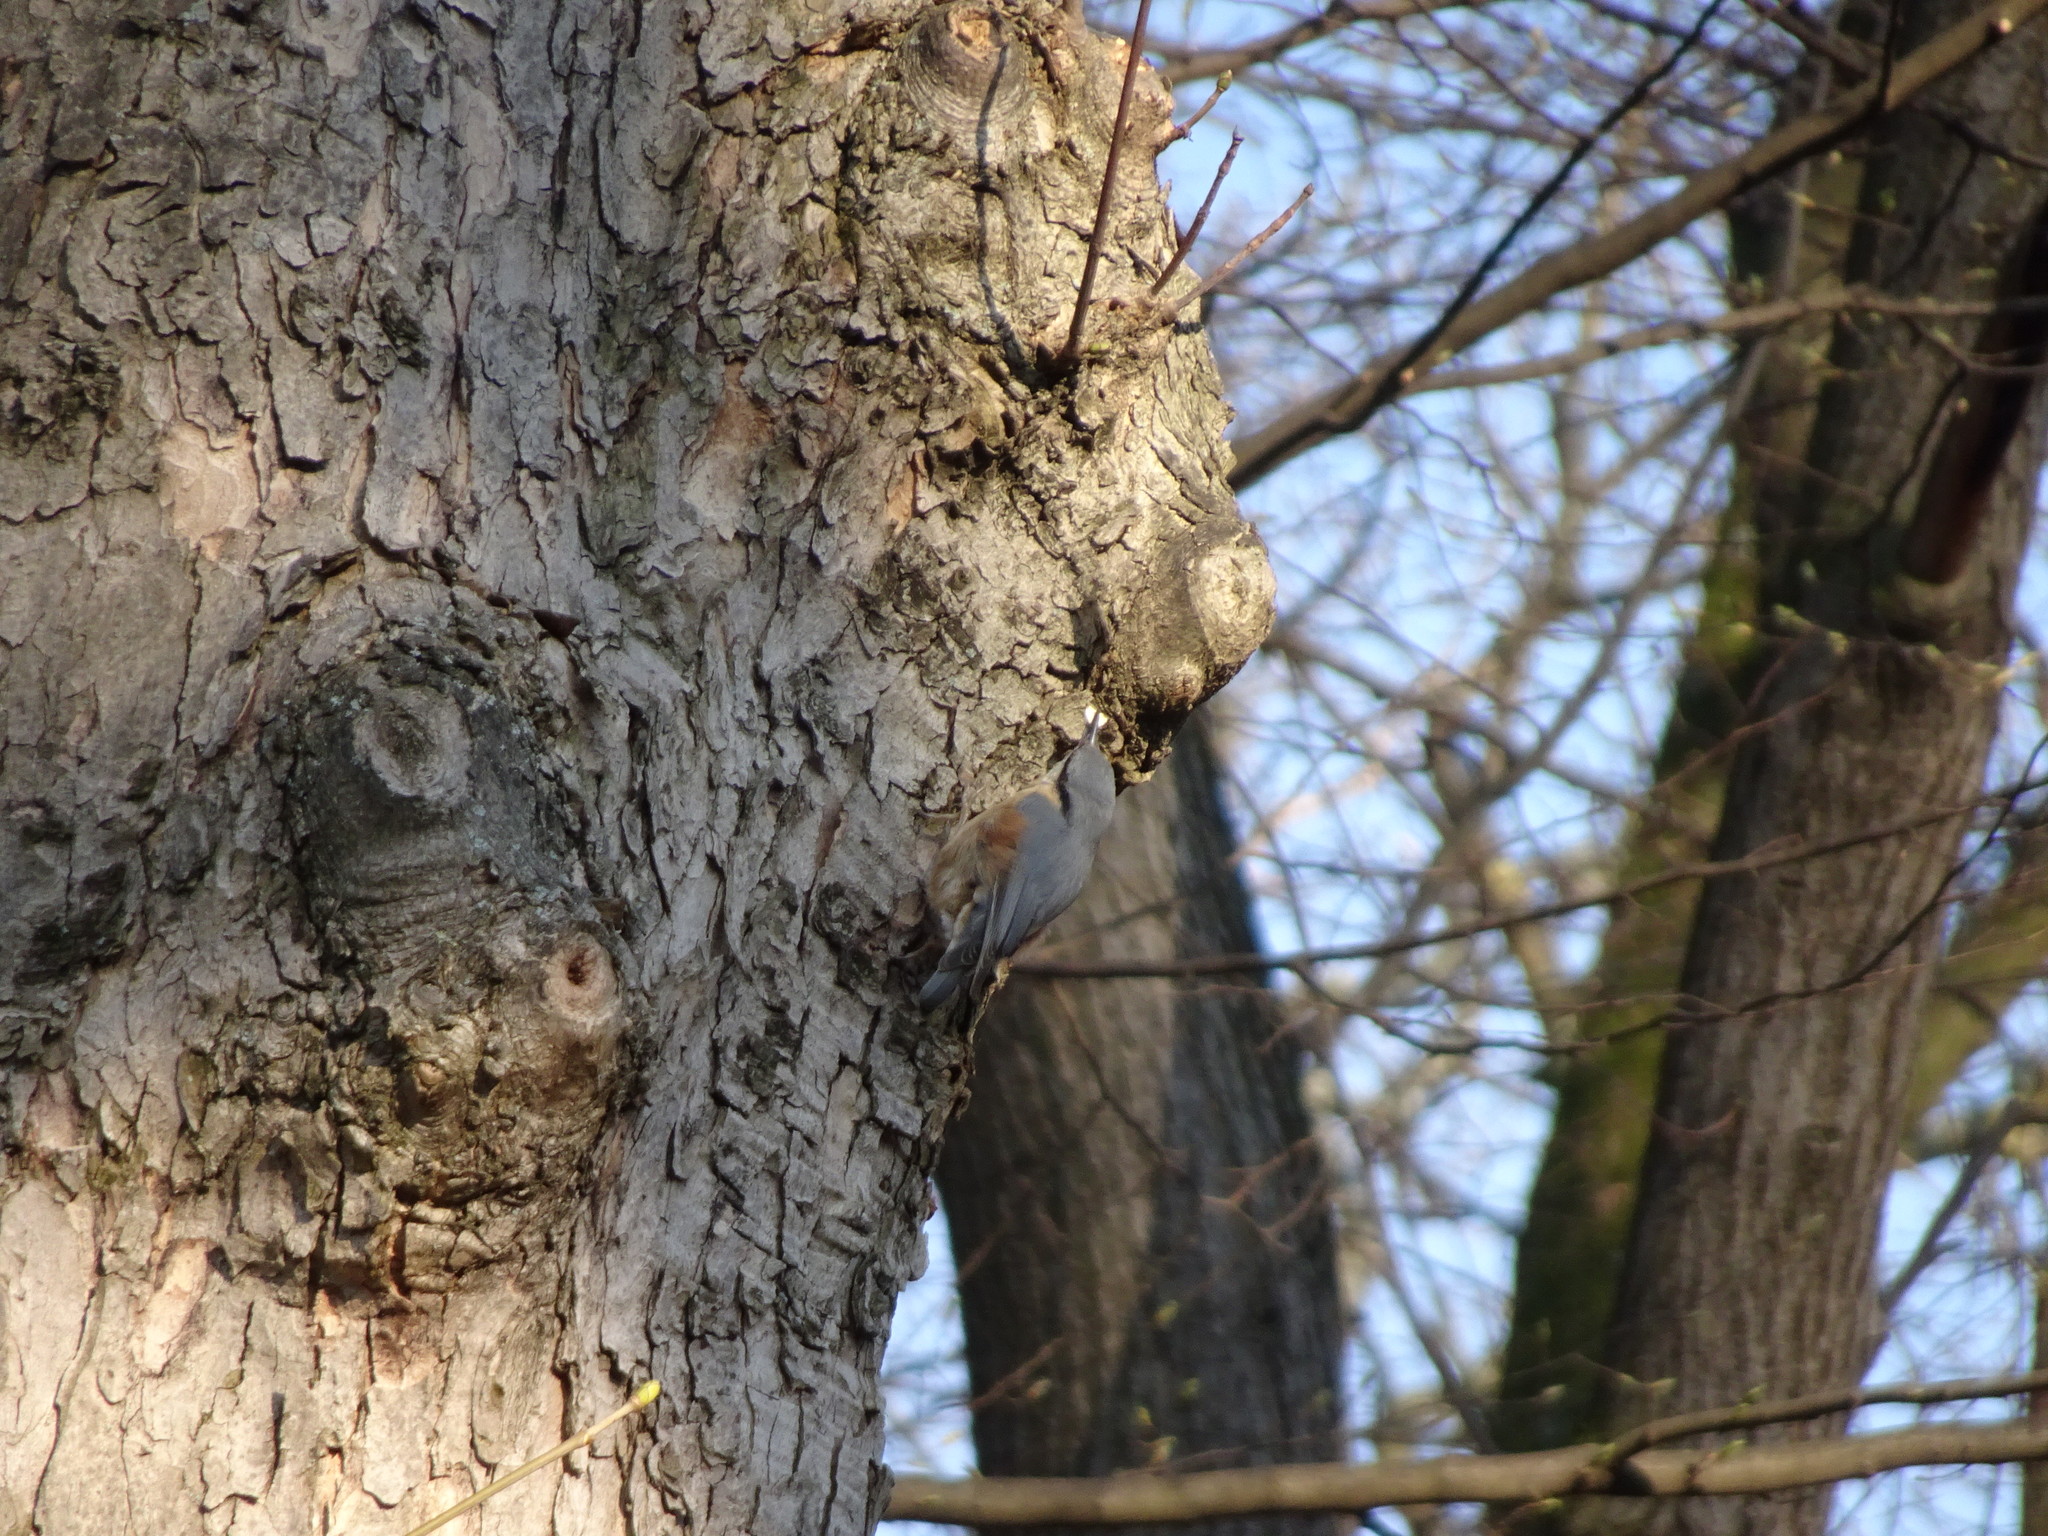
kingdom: Animalia
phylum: Chordata
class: Aves
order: Passeriformes
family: Sittidae
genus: Sitta
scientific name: Sitta europaea
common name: Eurasian nuthatch
